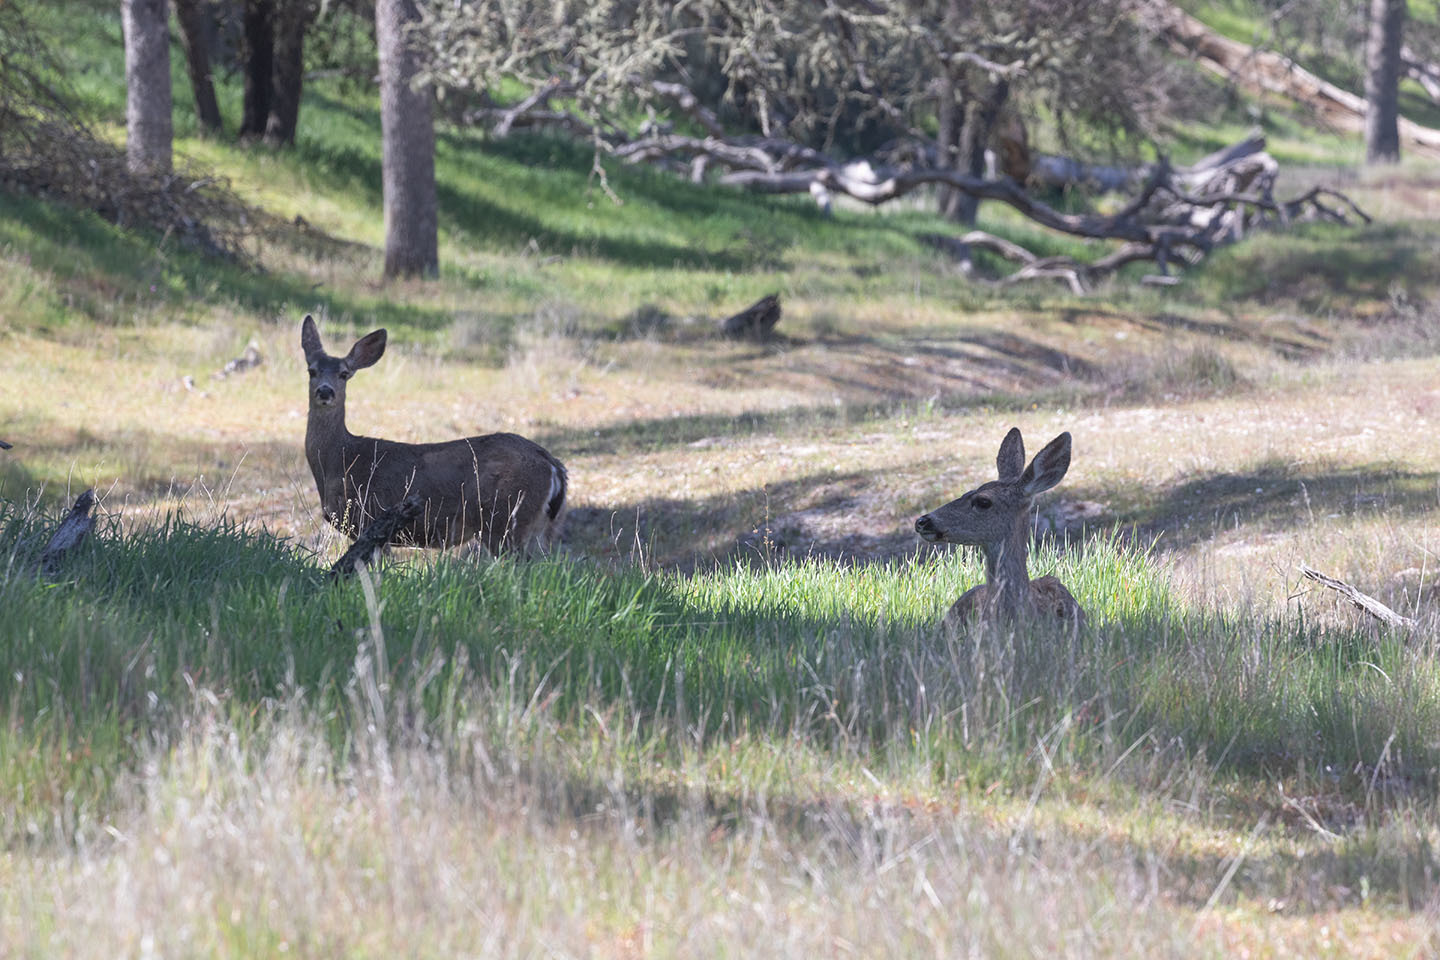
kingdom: Animalia
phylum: Chordata
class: Mammalia
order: Artiodactyla
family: Cervidae
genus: Odocoileus
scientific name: Odocoileus hemionus
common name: Mule deer
